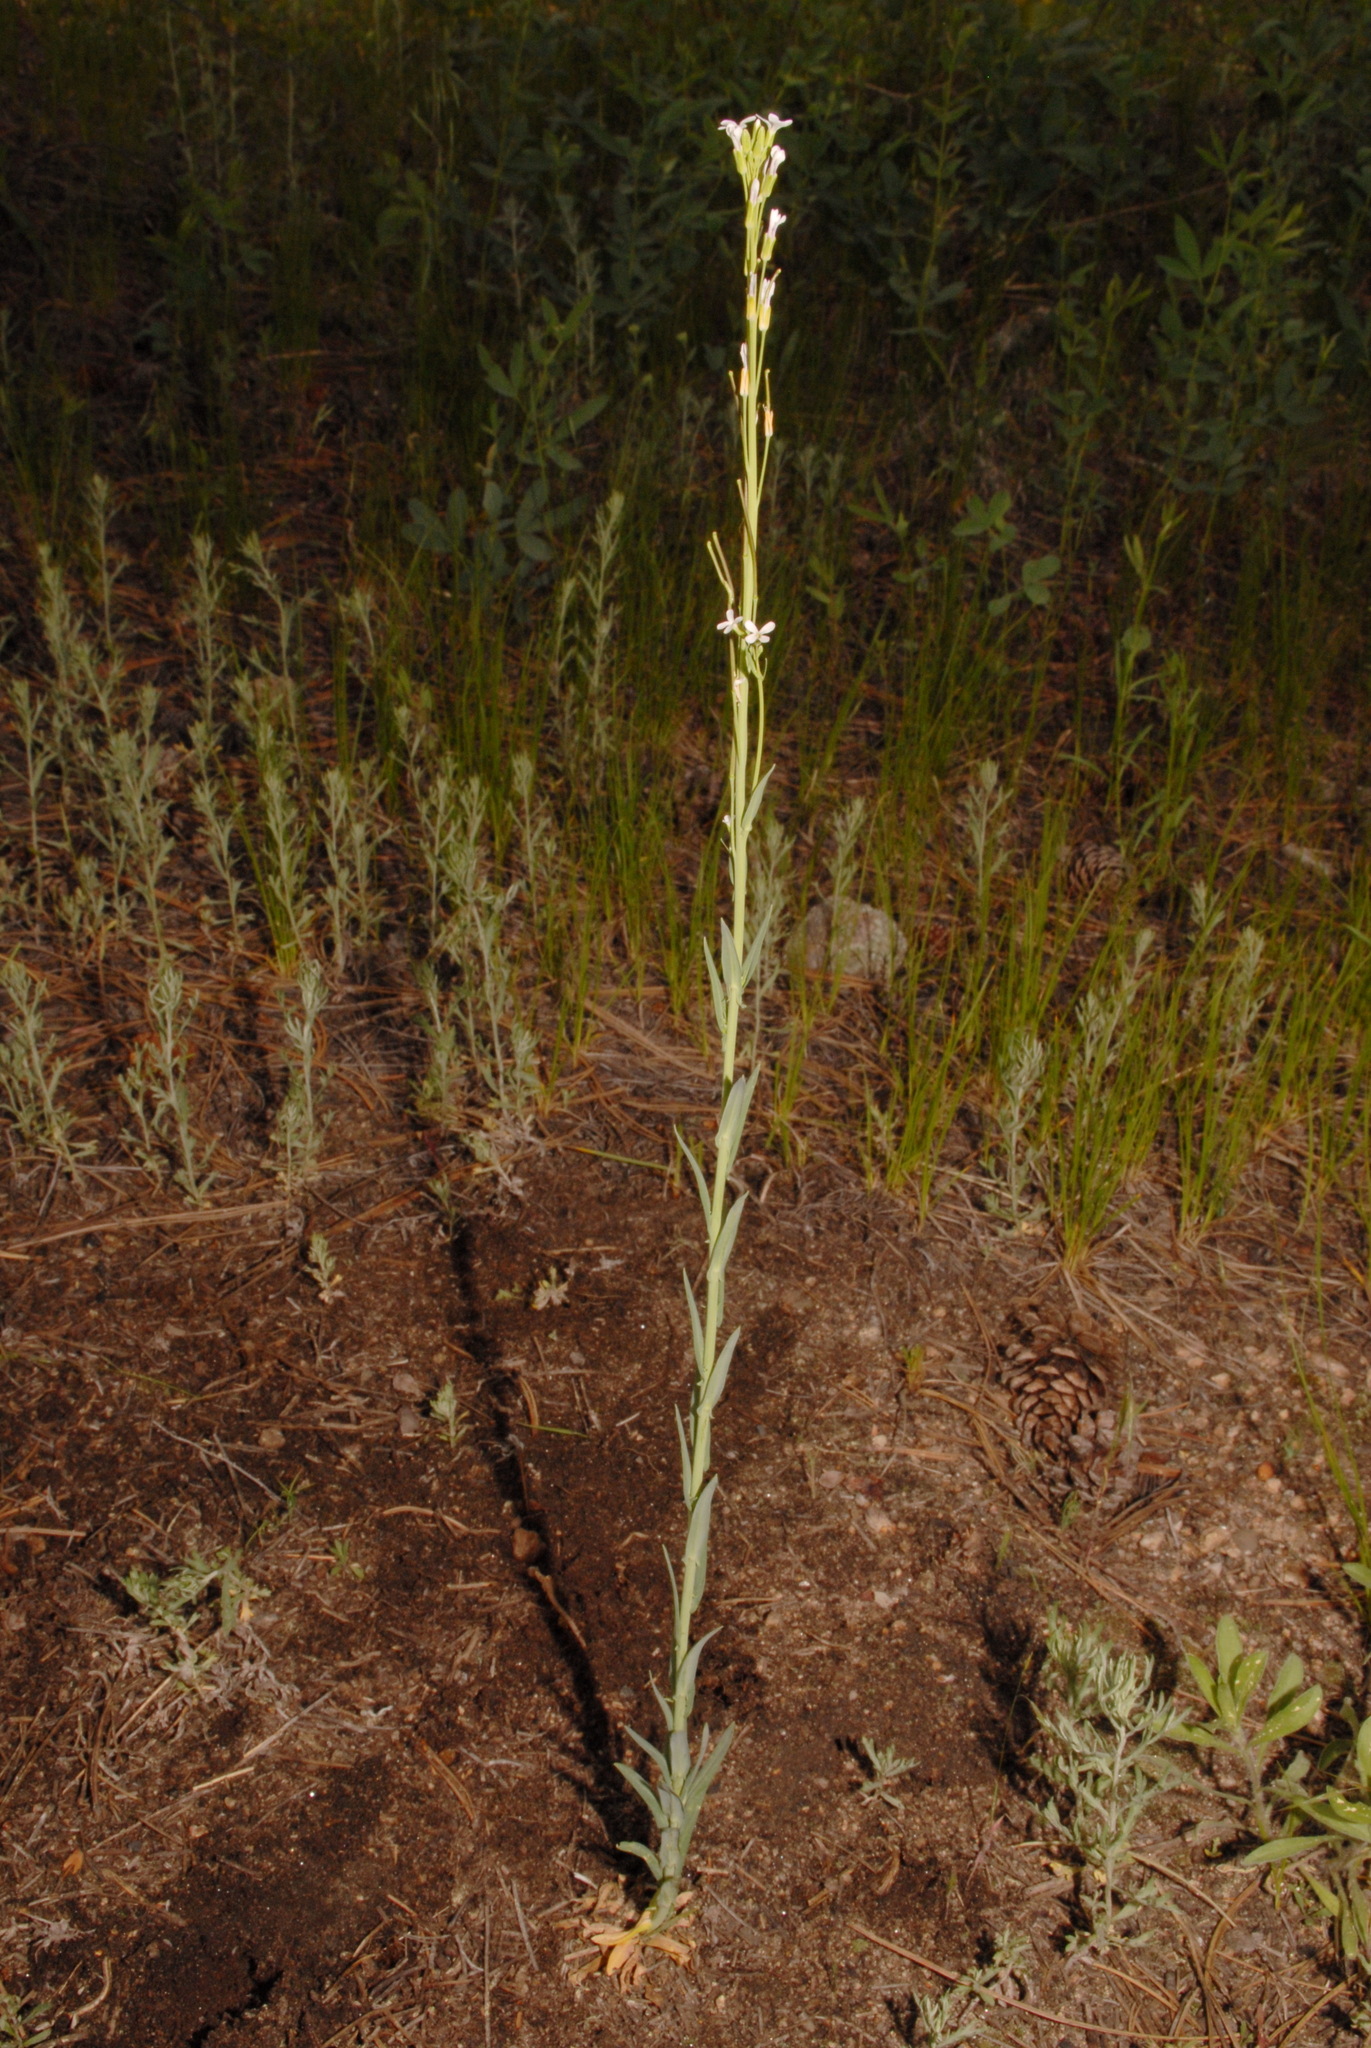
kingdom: Plantae
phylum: Tracheophyta
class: Magnoliopsida
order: Brassicales
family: Brassicaceae
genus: Turritis
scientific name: Turritis glabra
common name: Tower rockcress
